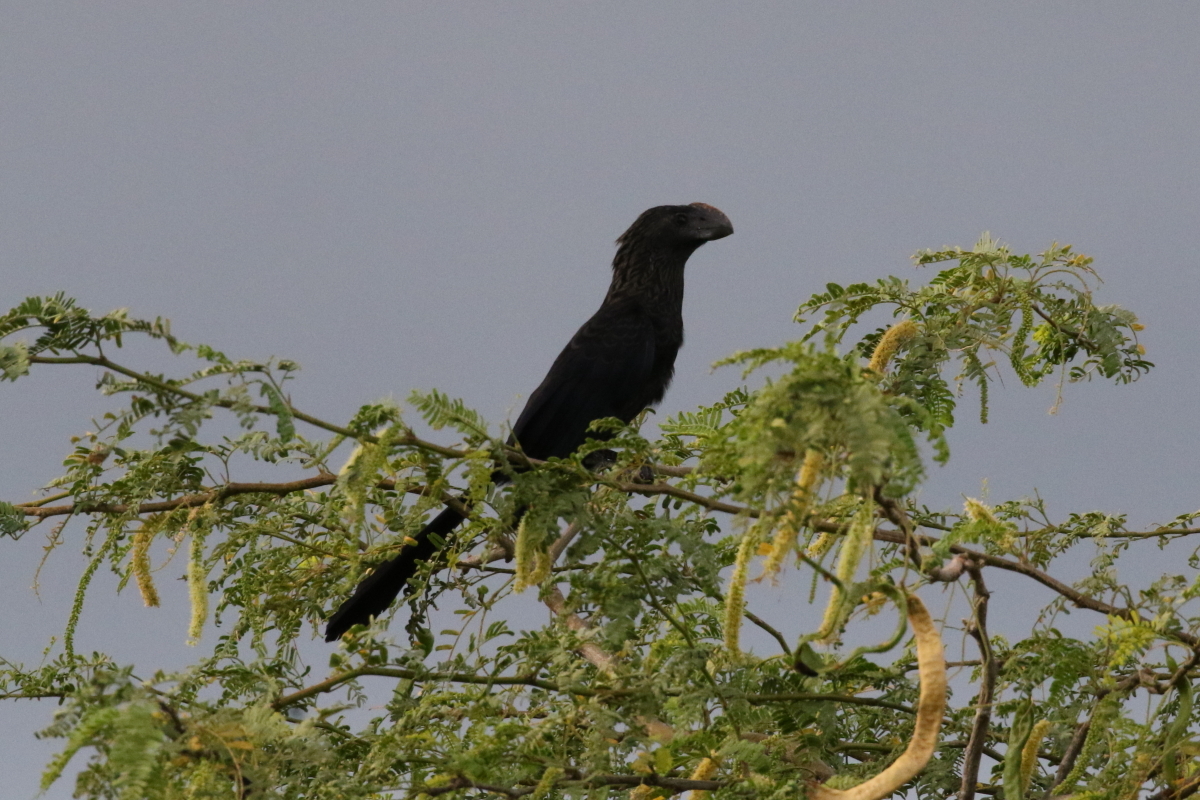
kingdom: Animalia
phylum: Chordata
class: Aves
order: Cuculiformes
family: Cuculidae
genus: Crotophaga
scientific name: Crotophaga ani
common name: Smooth-billed ani
